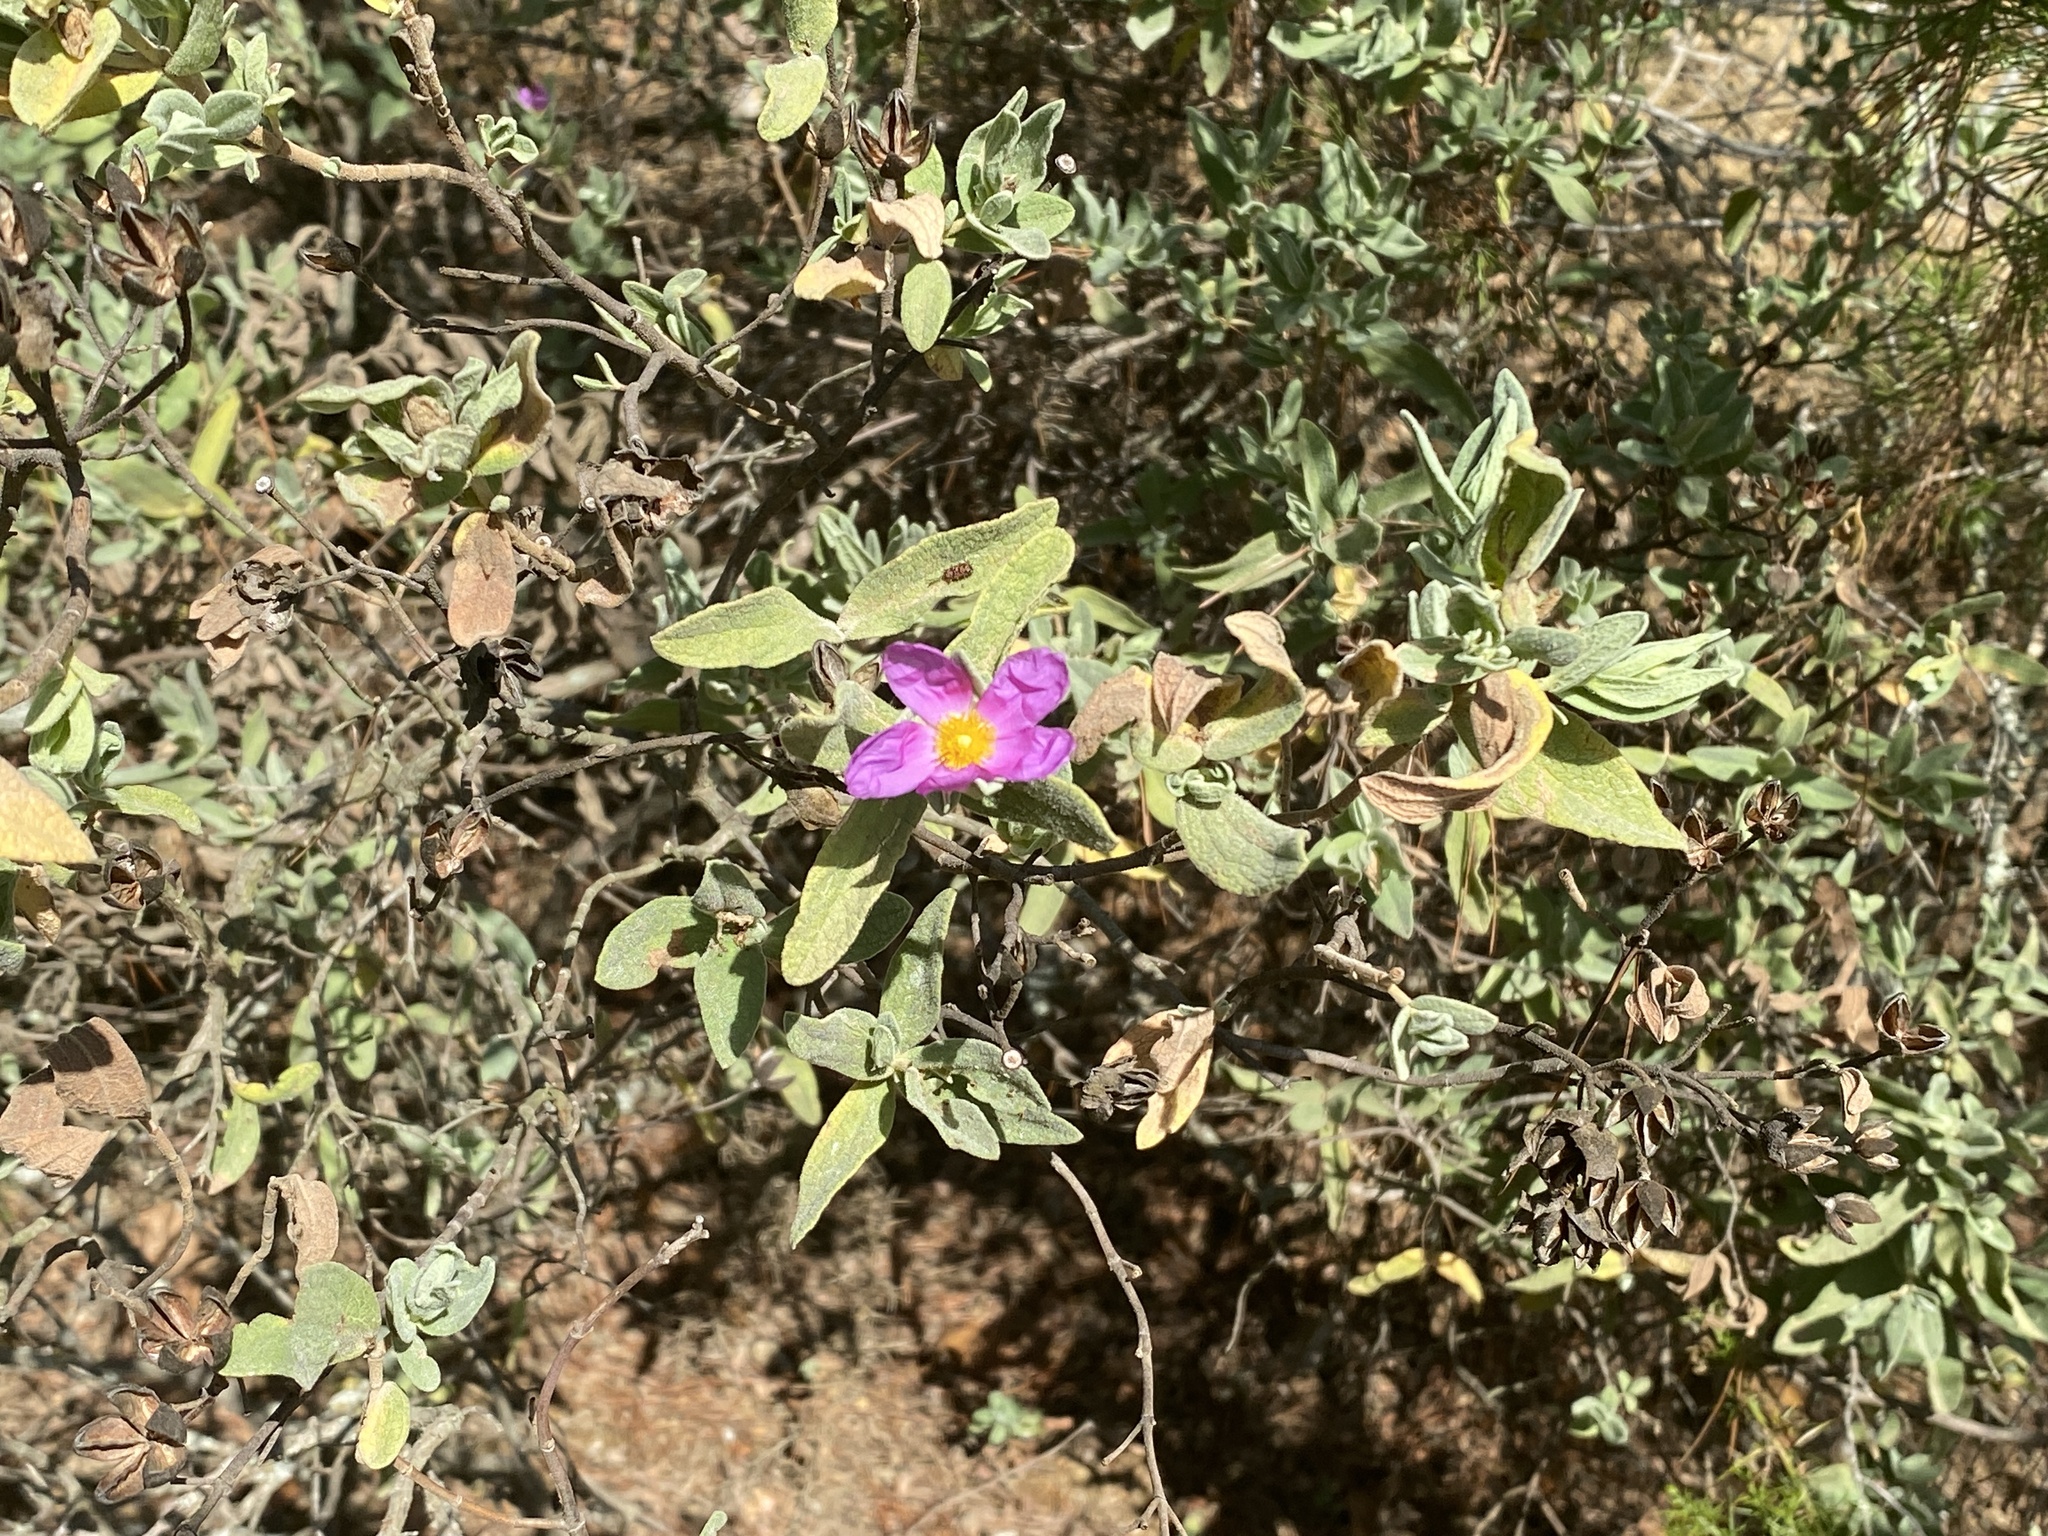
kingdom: Plantae
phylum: Tracheophyta
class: Magnoliopsida
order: Malvales
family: Cistaceae
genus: Cistus
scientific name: Cistus albidus
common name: White-leaf rock-rose
